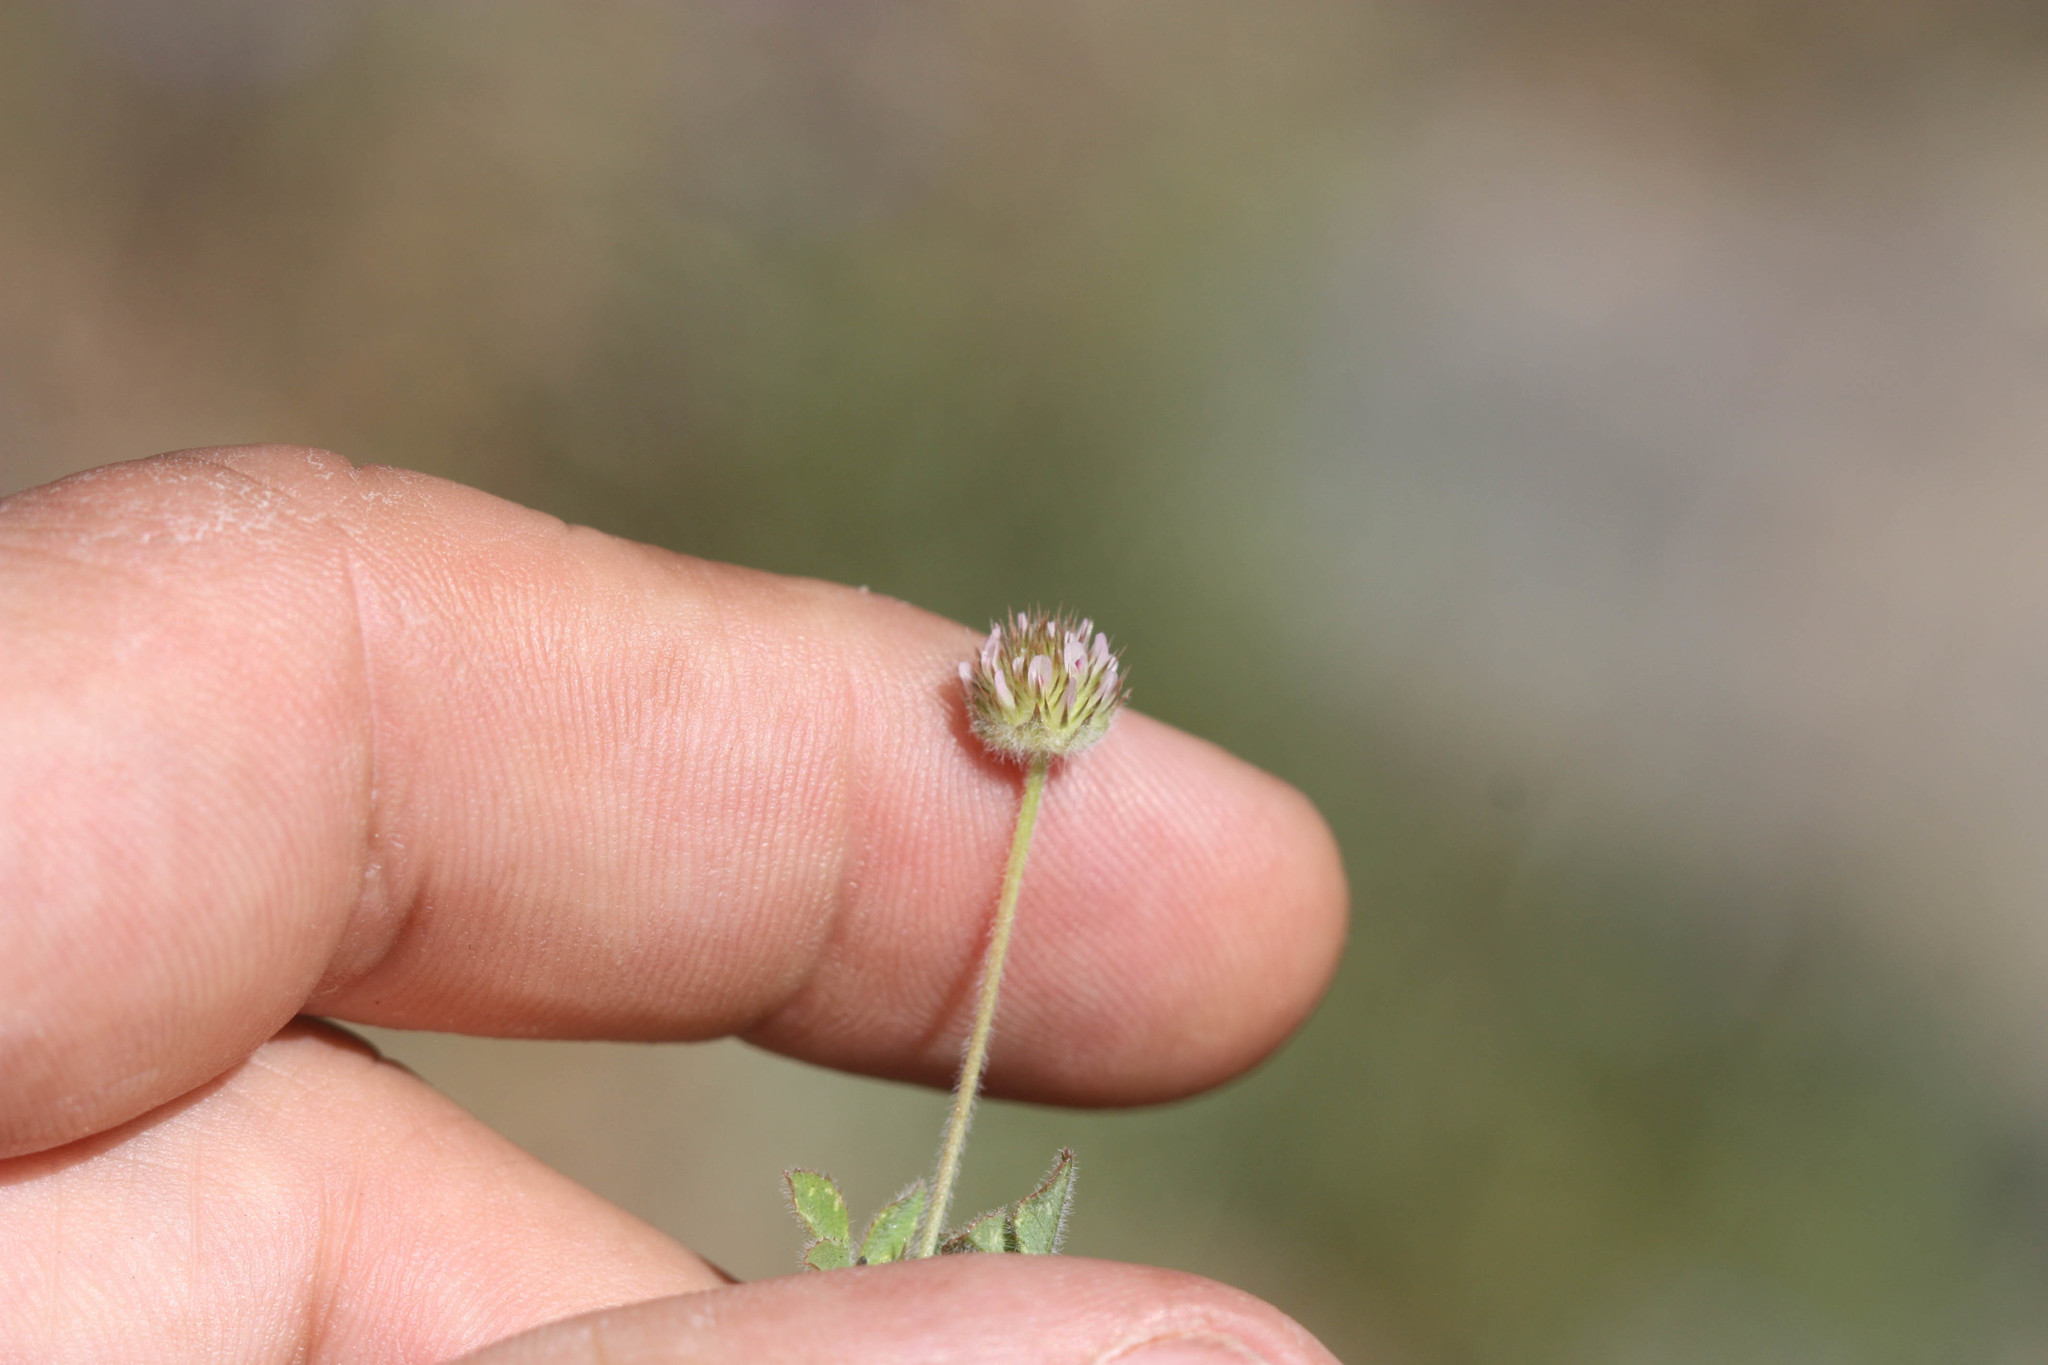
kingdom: Plantae
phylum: Tracheophyta
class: Magnoliopsida
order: Fabales
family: Fabaceae
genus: Trifolium
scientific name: Trifolium microdon
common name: Thimble clover
